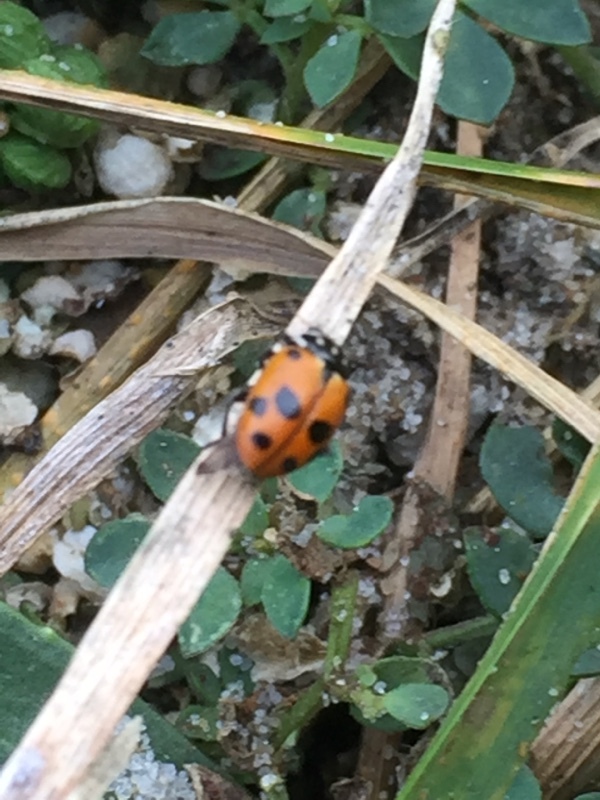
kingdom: Animalia
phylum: Arthropoda
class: Insecta
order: Coleoptera
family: Coccinellidae
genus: Hippodamia
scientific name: Hippodamia variegata
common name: Ladybird beetle
